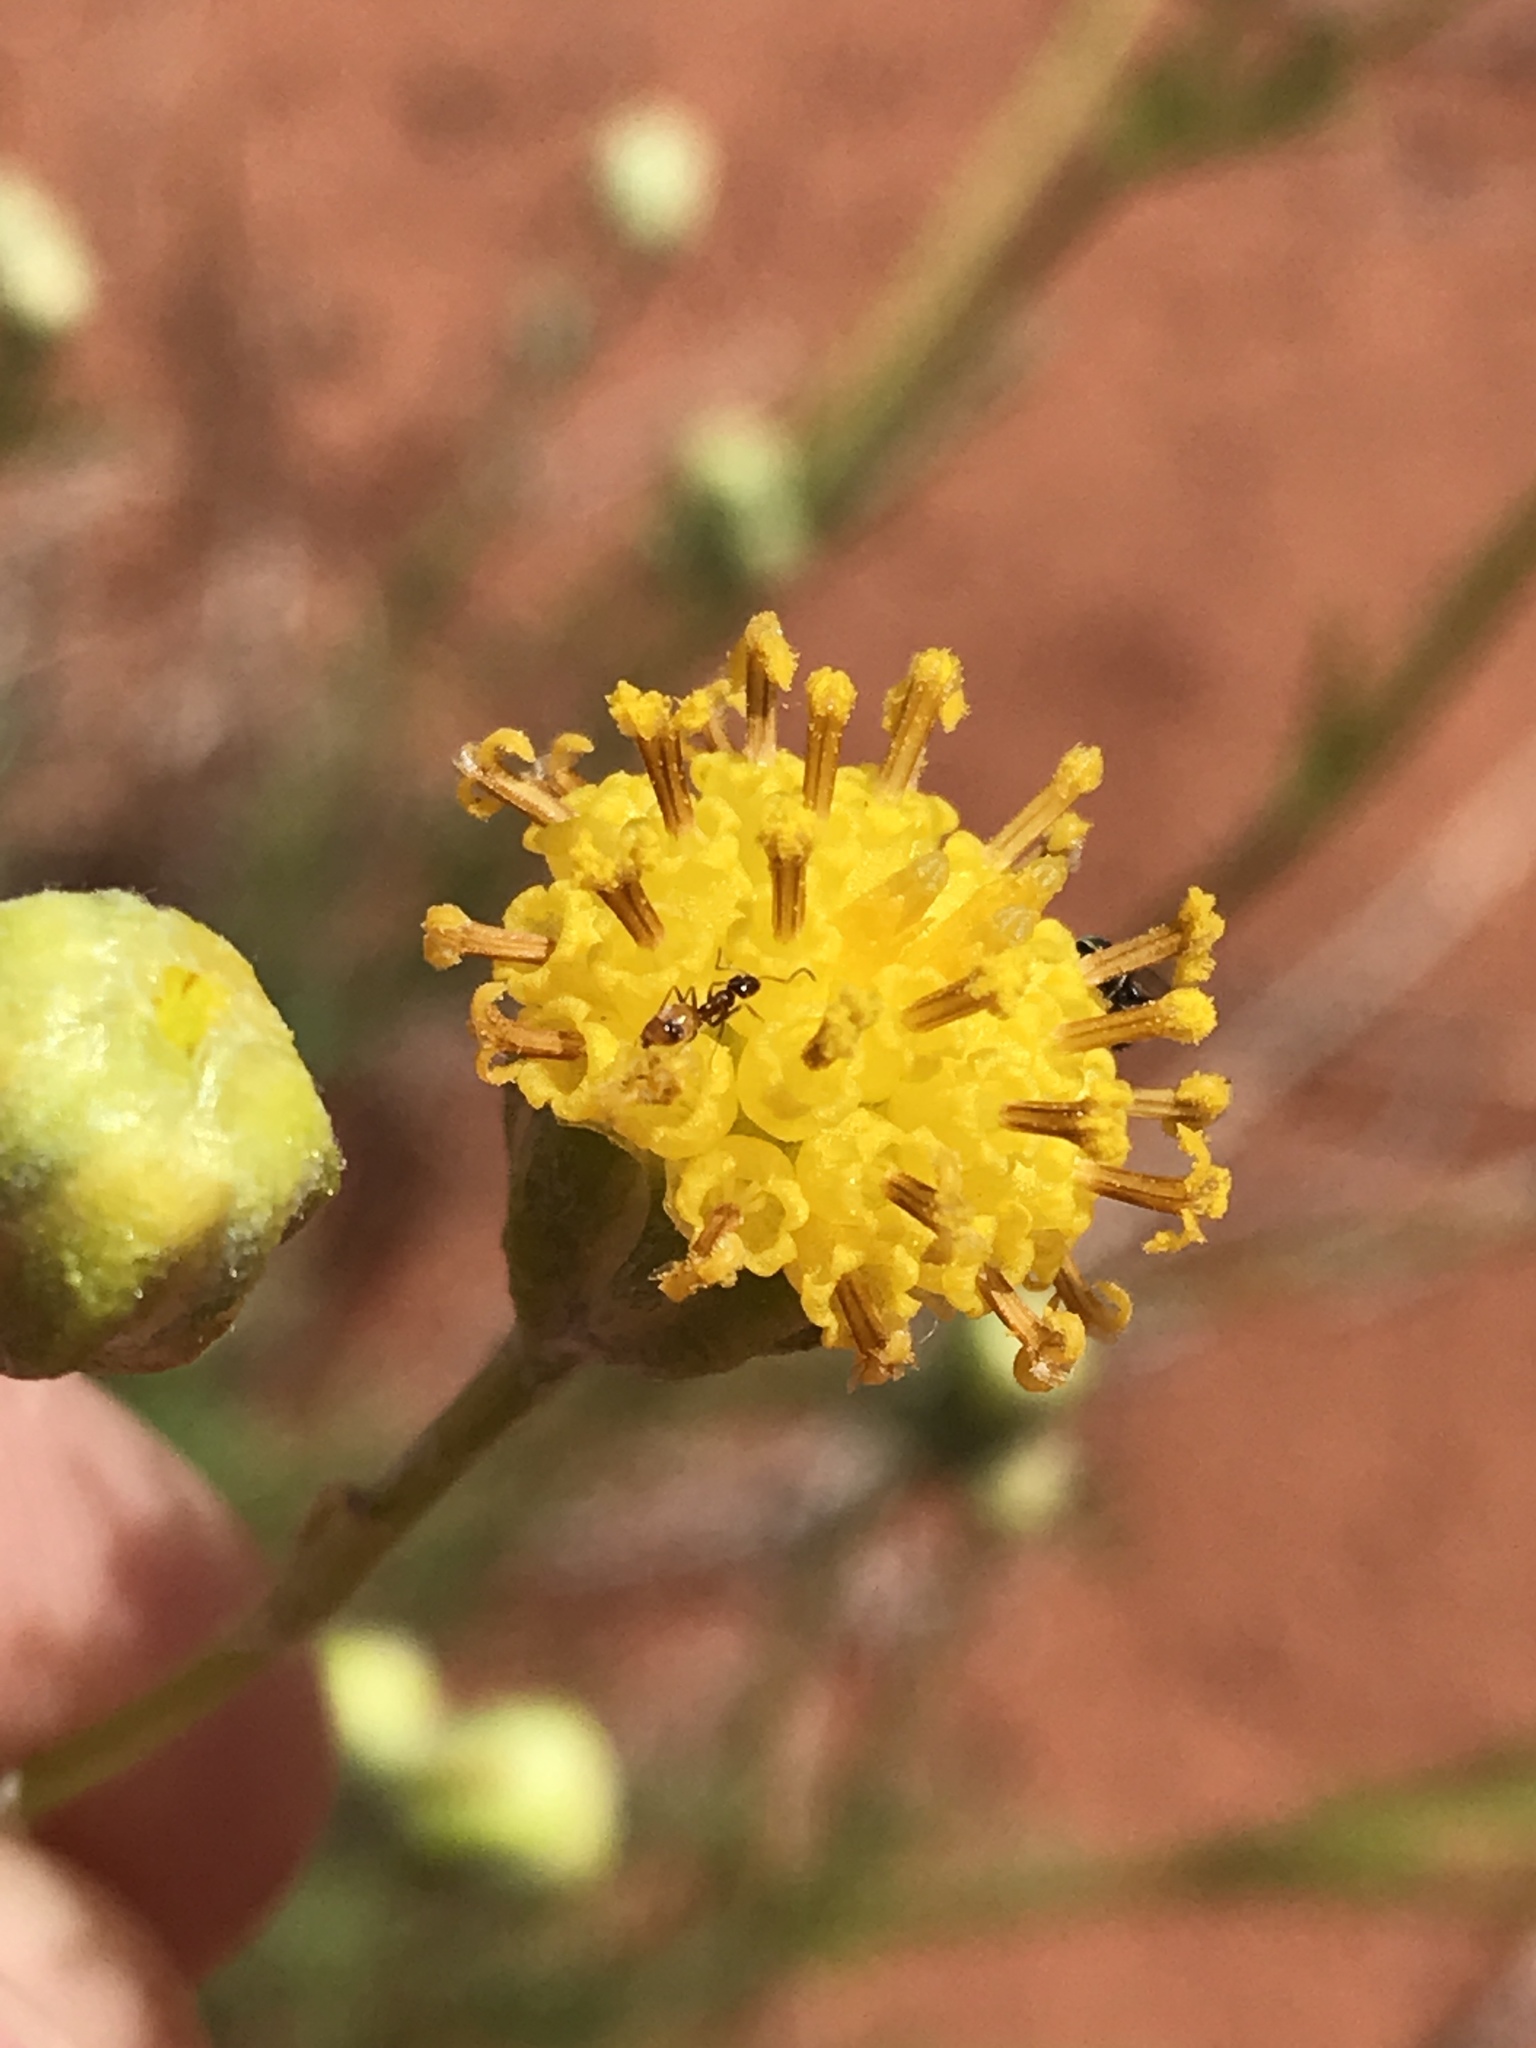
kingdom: Plantae
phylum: Tracheophyta
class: Magnoliopsida
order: Asterales
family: Asteraceae
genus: Hymenopappus
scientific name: Hymenopappus filifolius
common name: Columbia cutleaf
